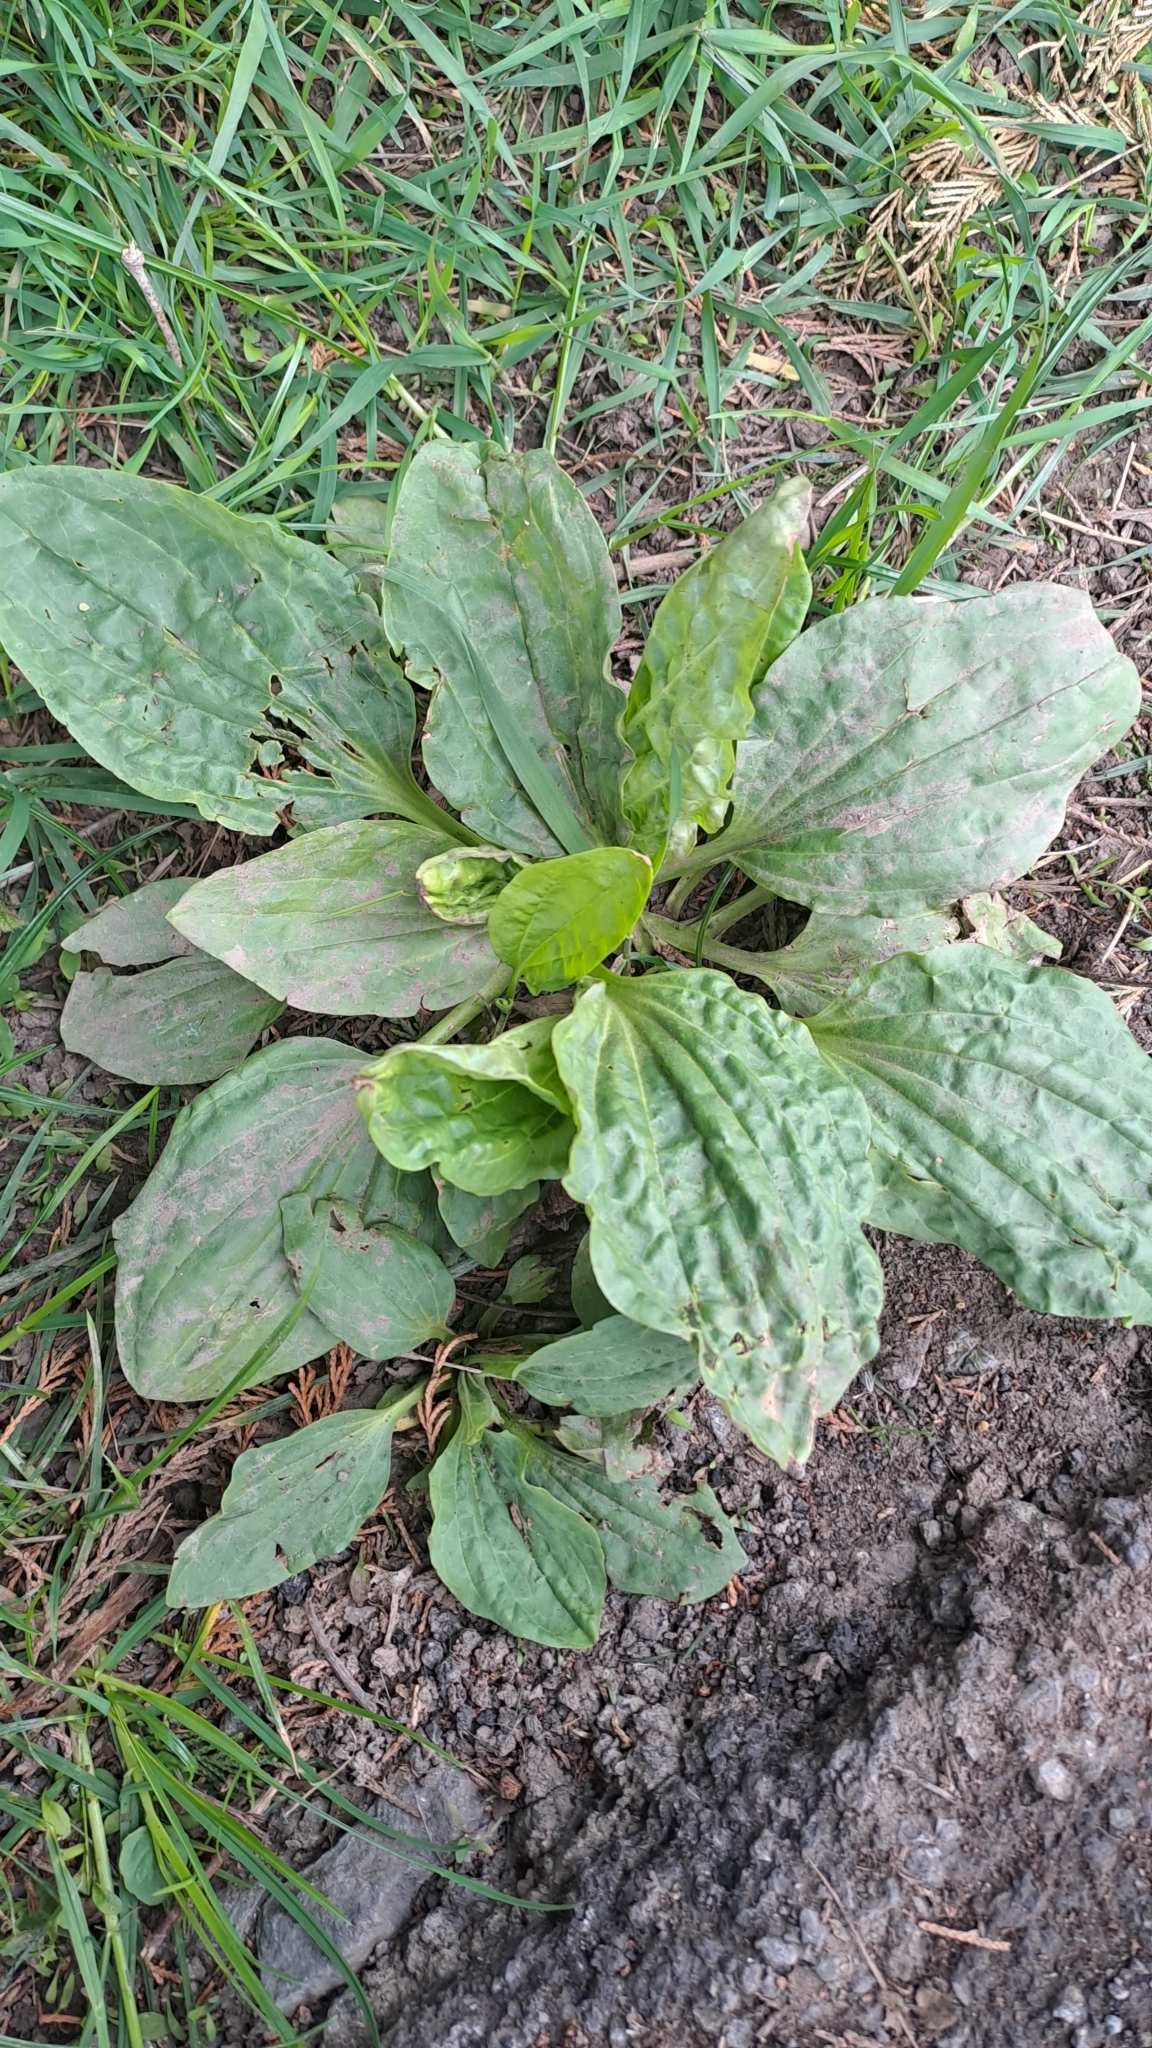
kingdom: Plantae
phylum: Tracheophyta
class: Magnoliopsida
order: Lamiales
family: Plantaginaceae
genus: Plantago
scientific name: Plantago major
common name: Common plantain
